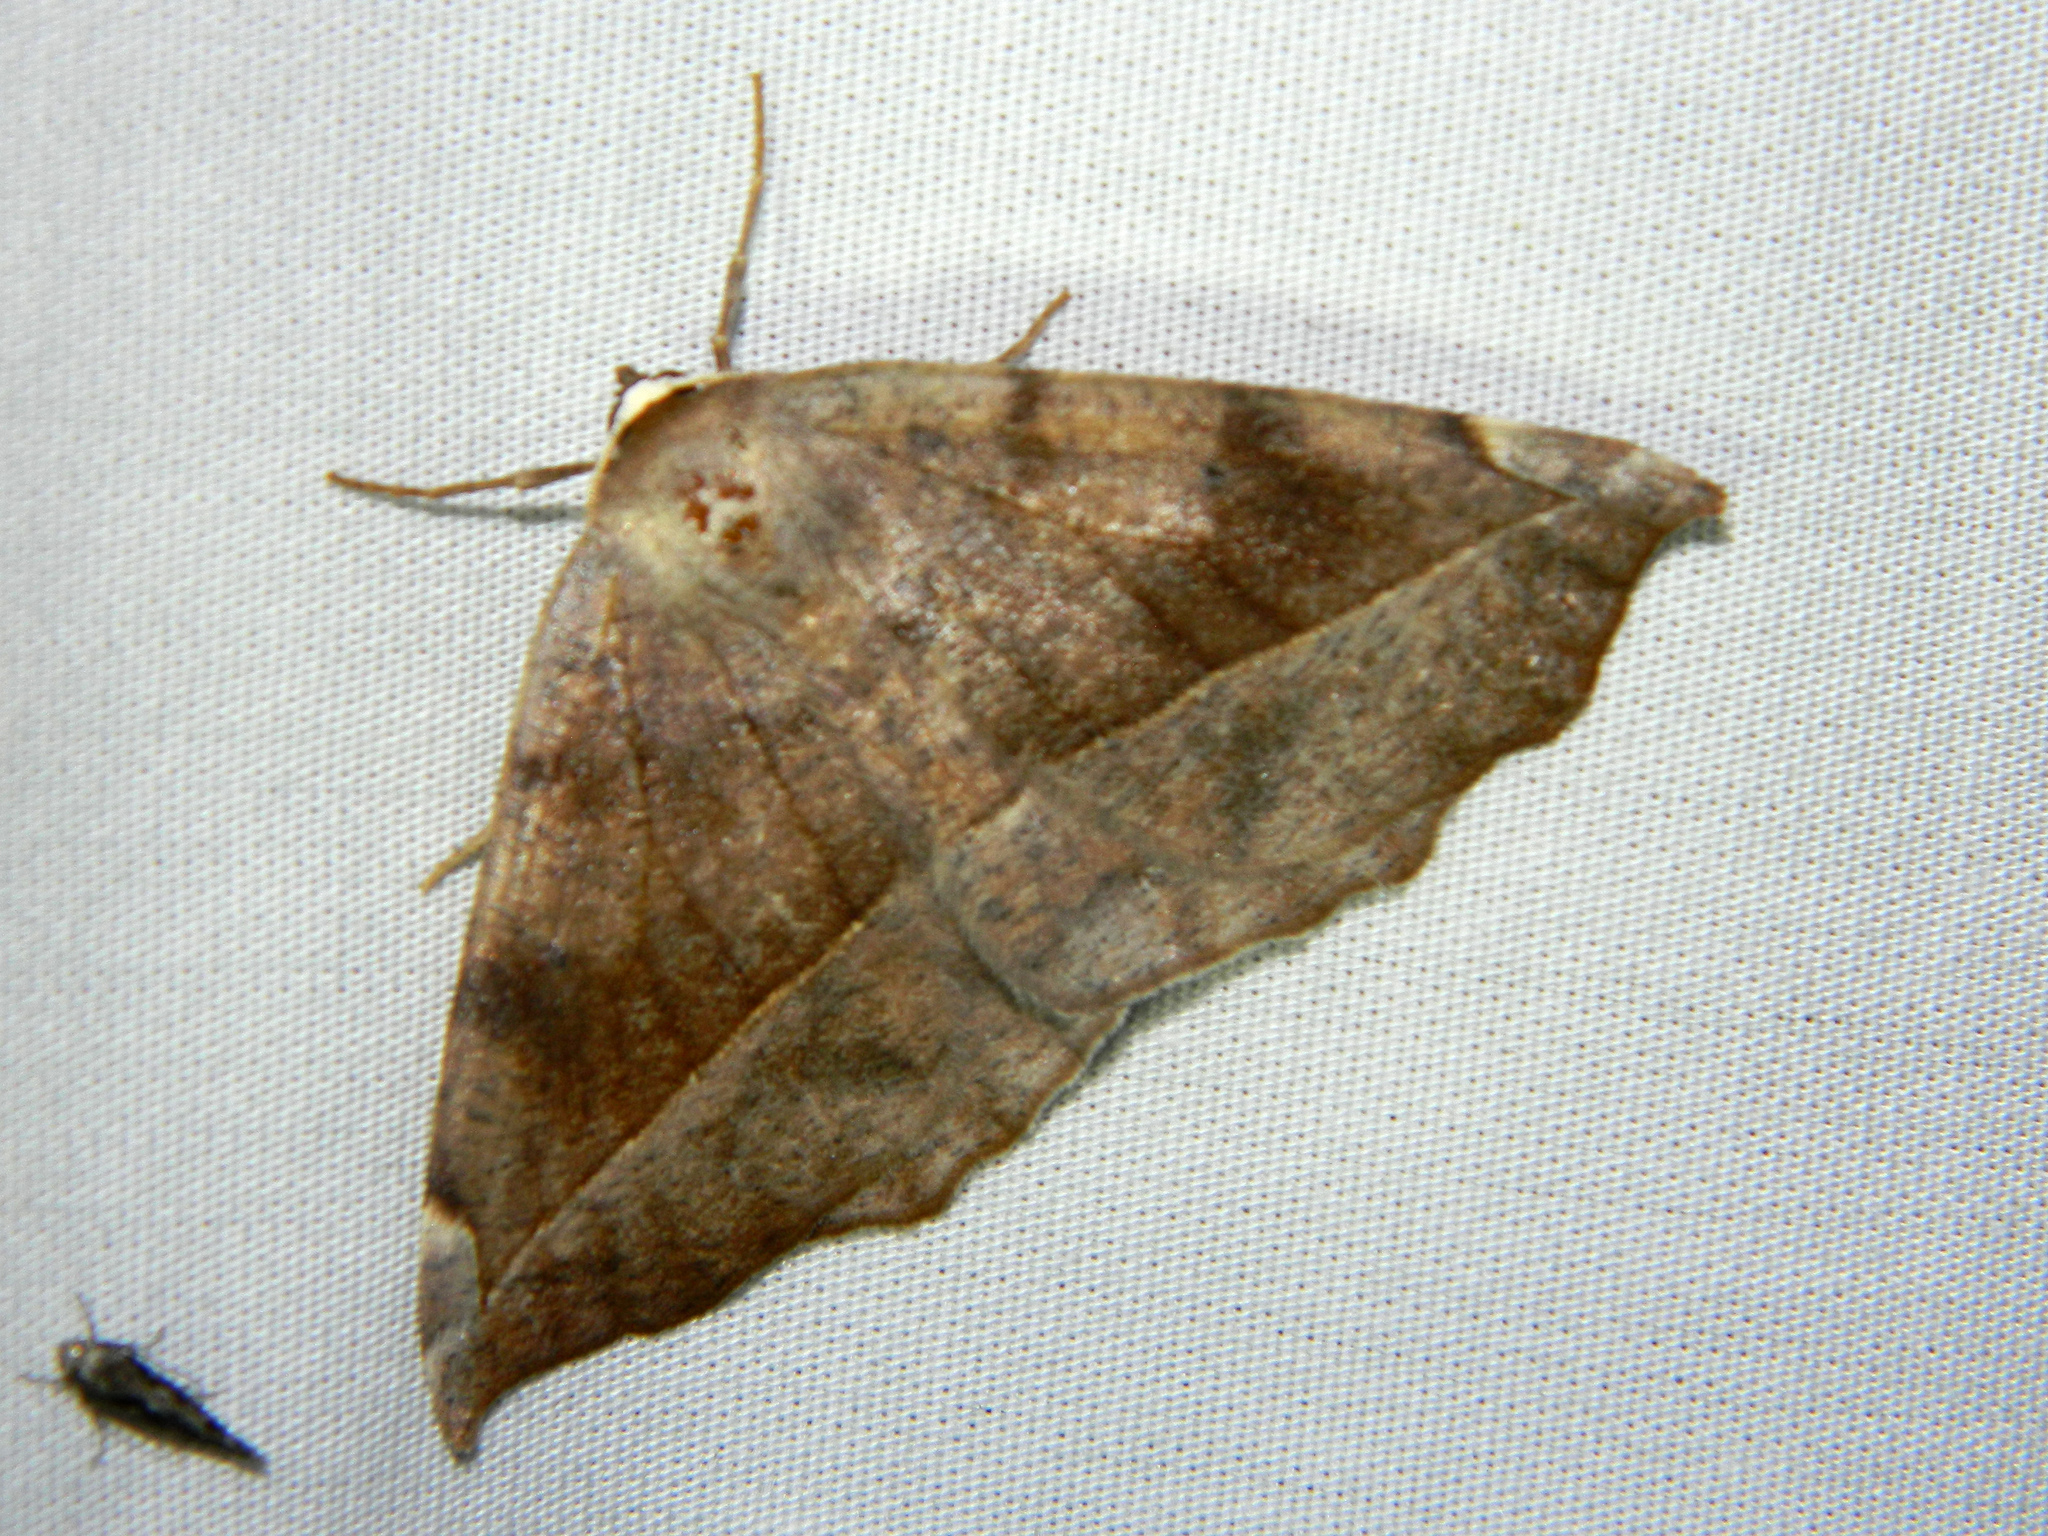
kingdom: Animalia
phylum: Arthropoda
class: Insecta
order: Lepidoptera
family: Geometridae
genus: Eutrapela
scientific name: Eutrapela clemataria
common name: Curved-toothed geometer
